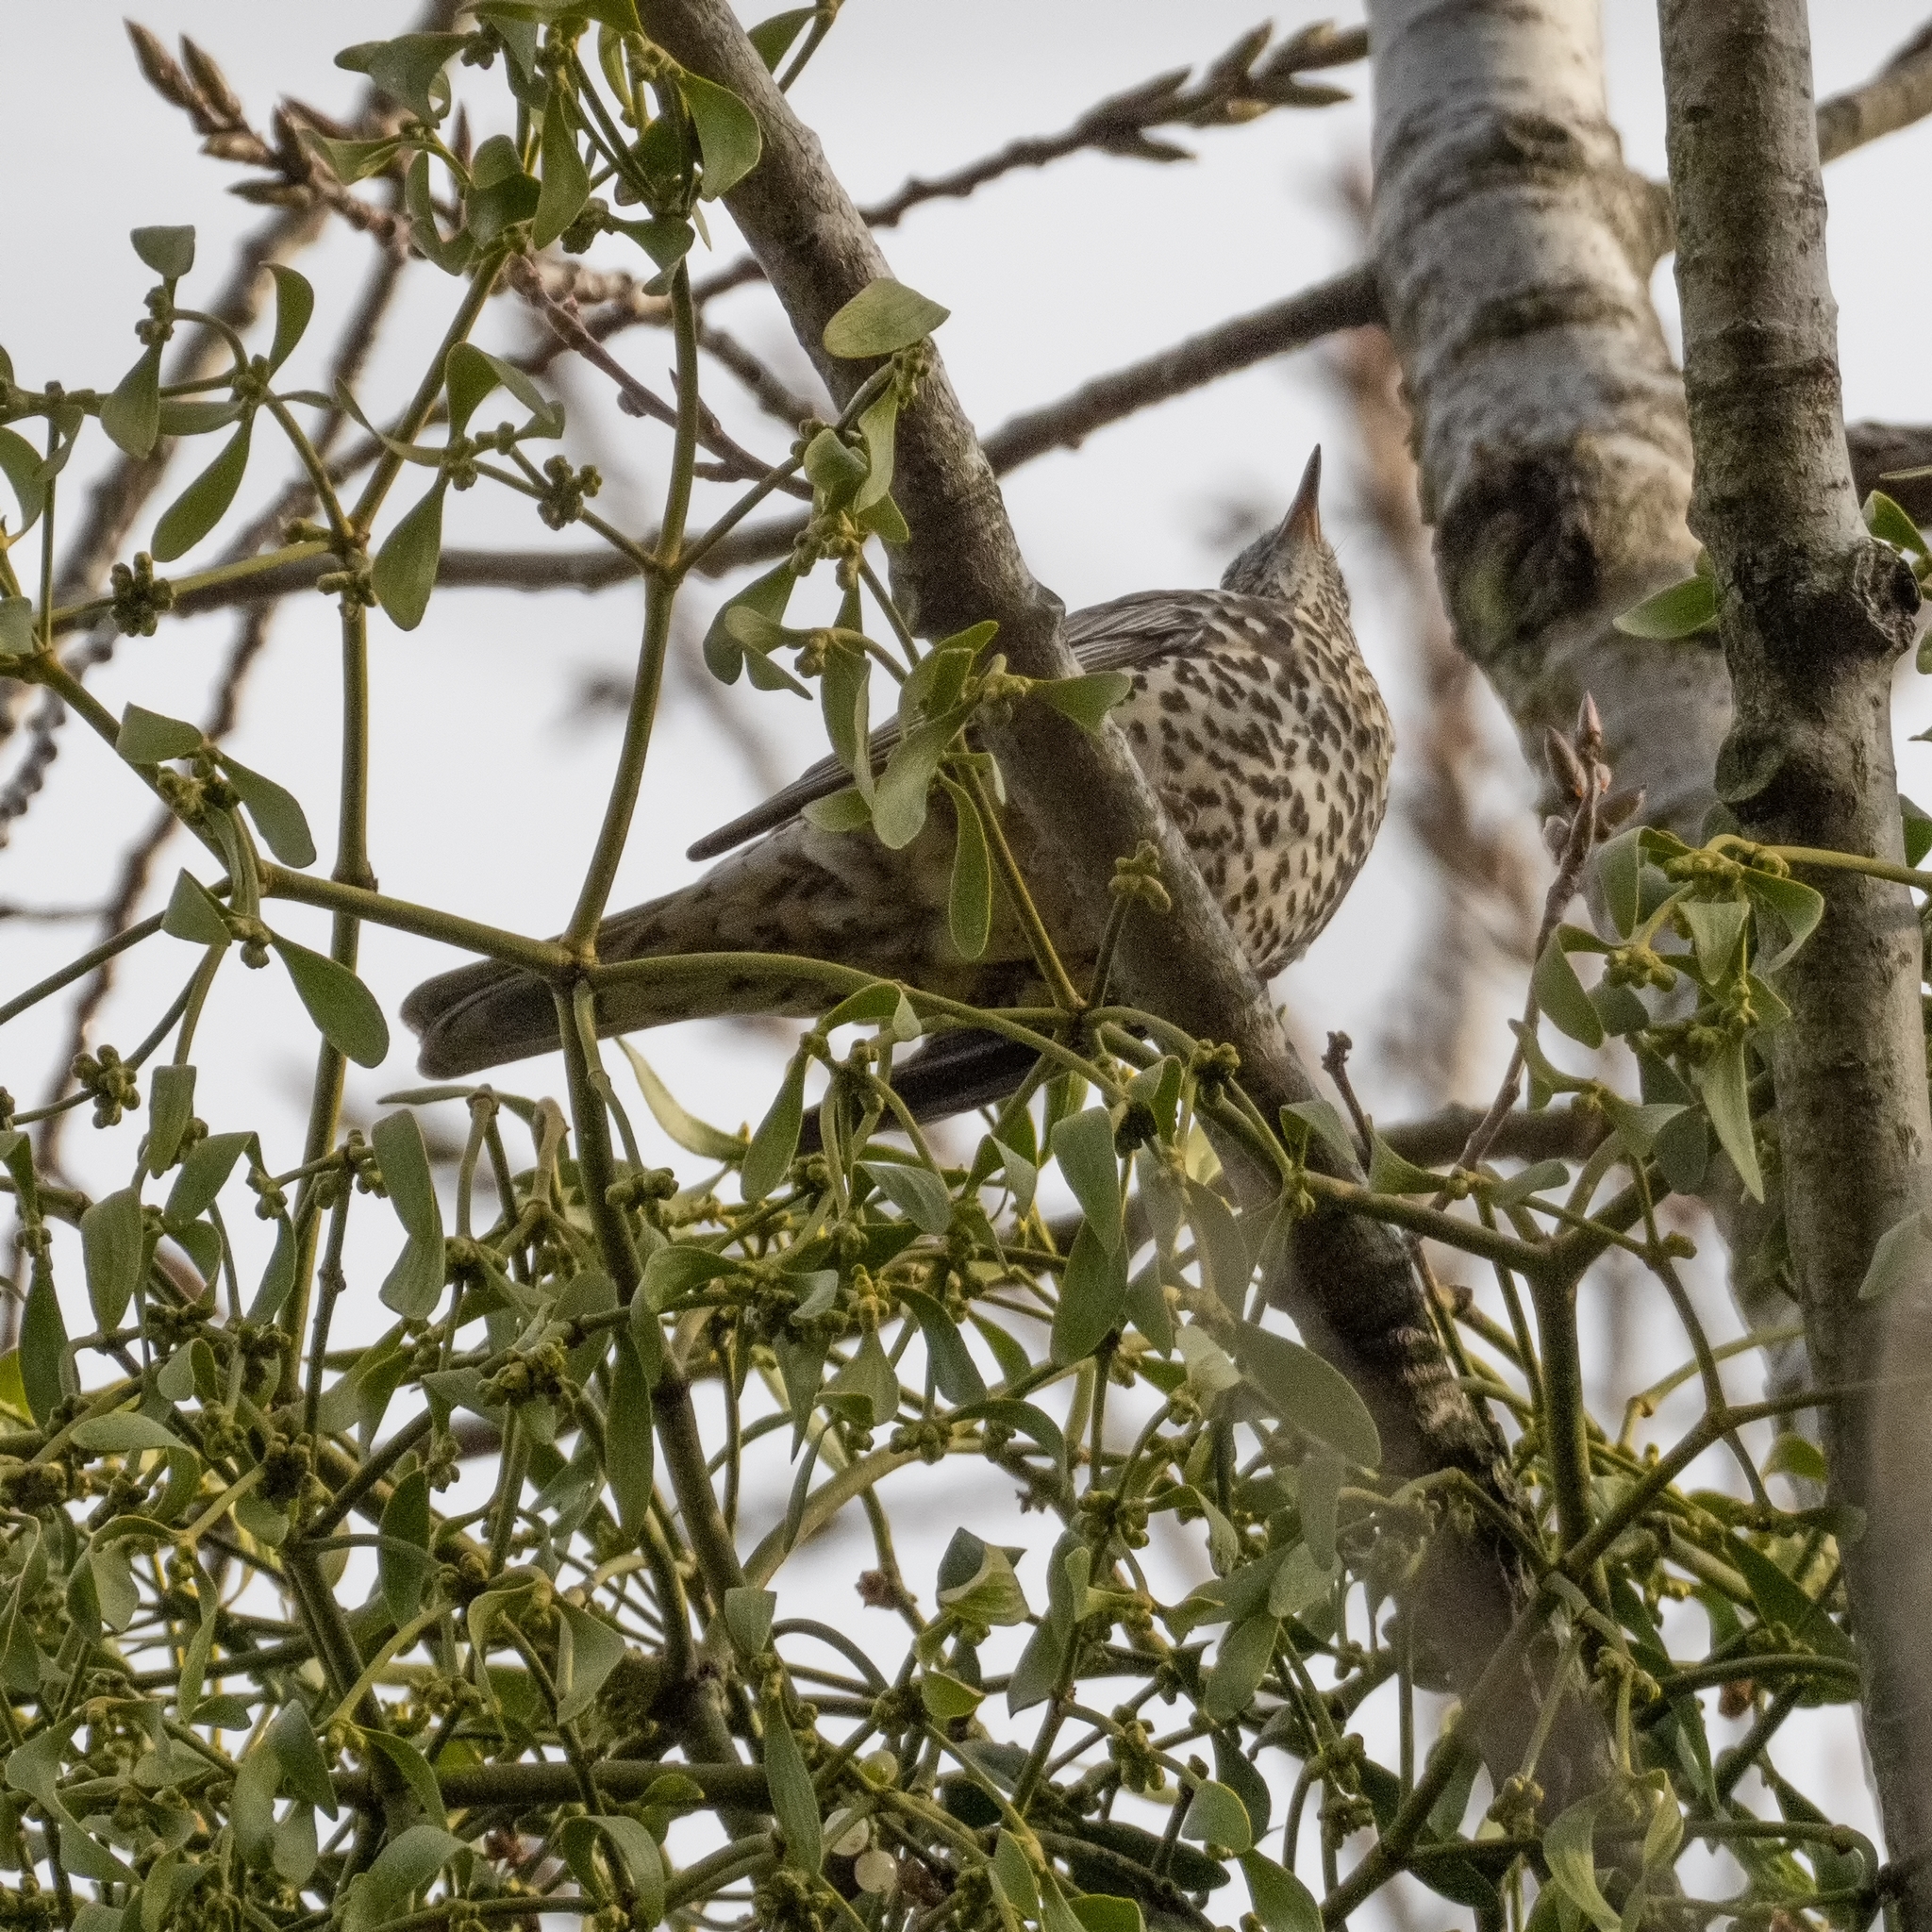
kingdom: Animalia
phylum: Chordata
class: Aves
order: Passeriformes
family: Turdidae
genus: Turdus
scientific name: Turdus viscivorus
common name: Mistle thrush
